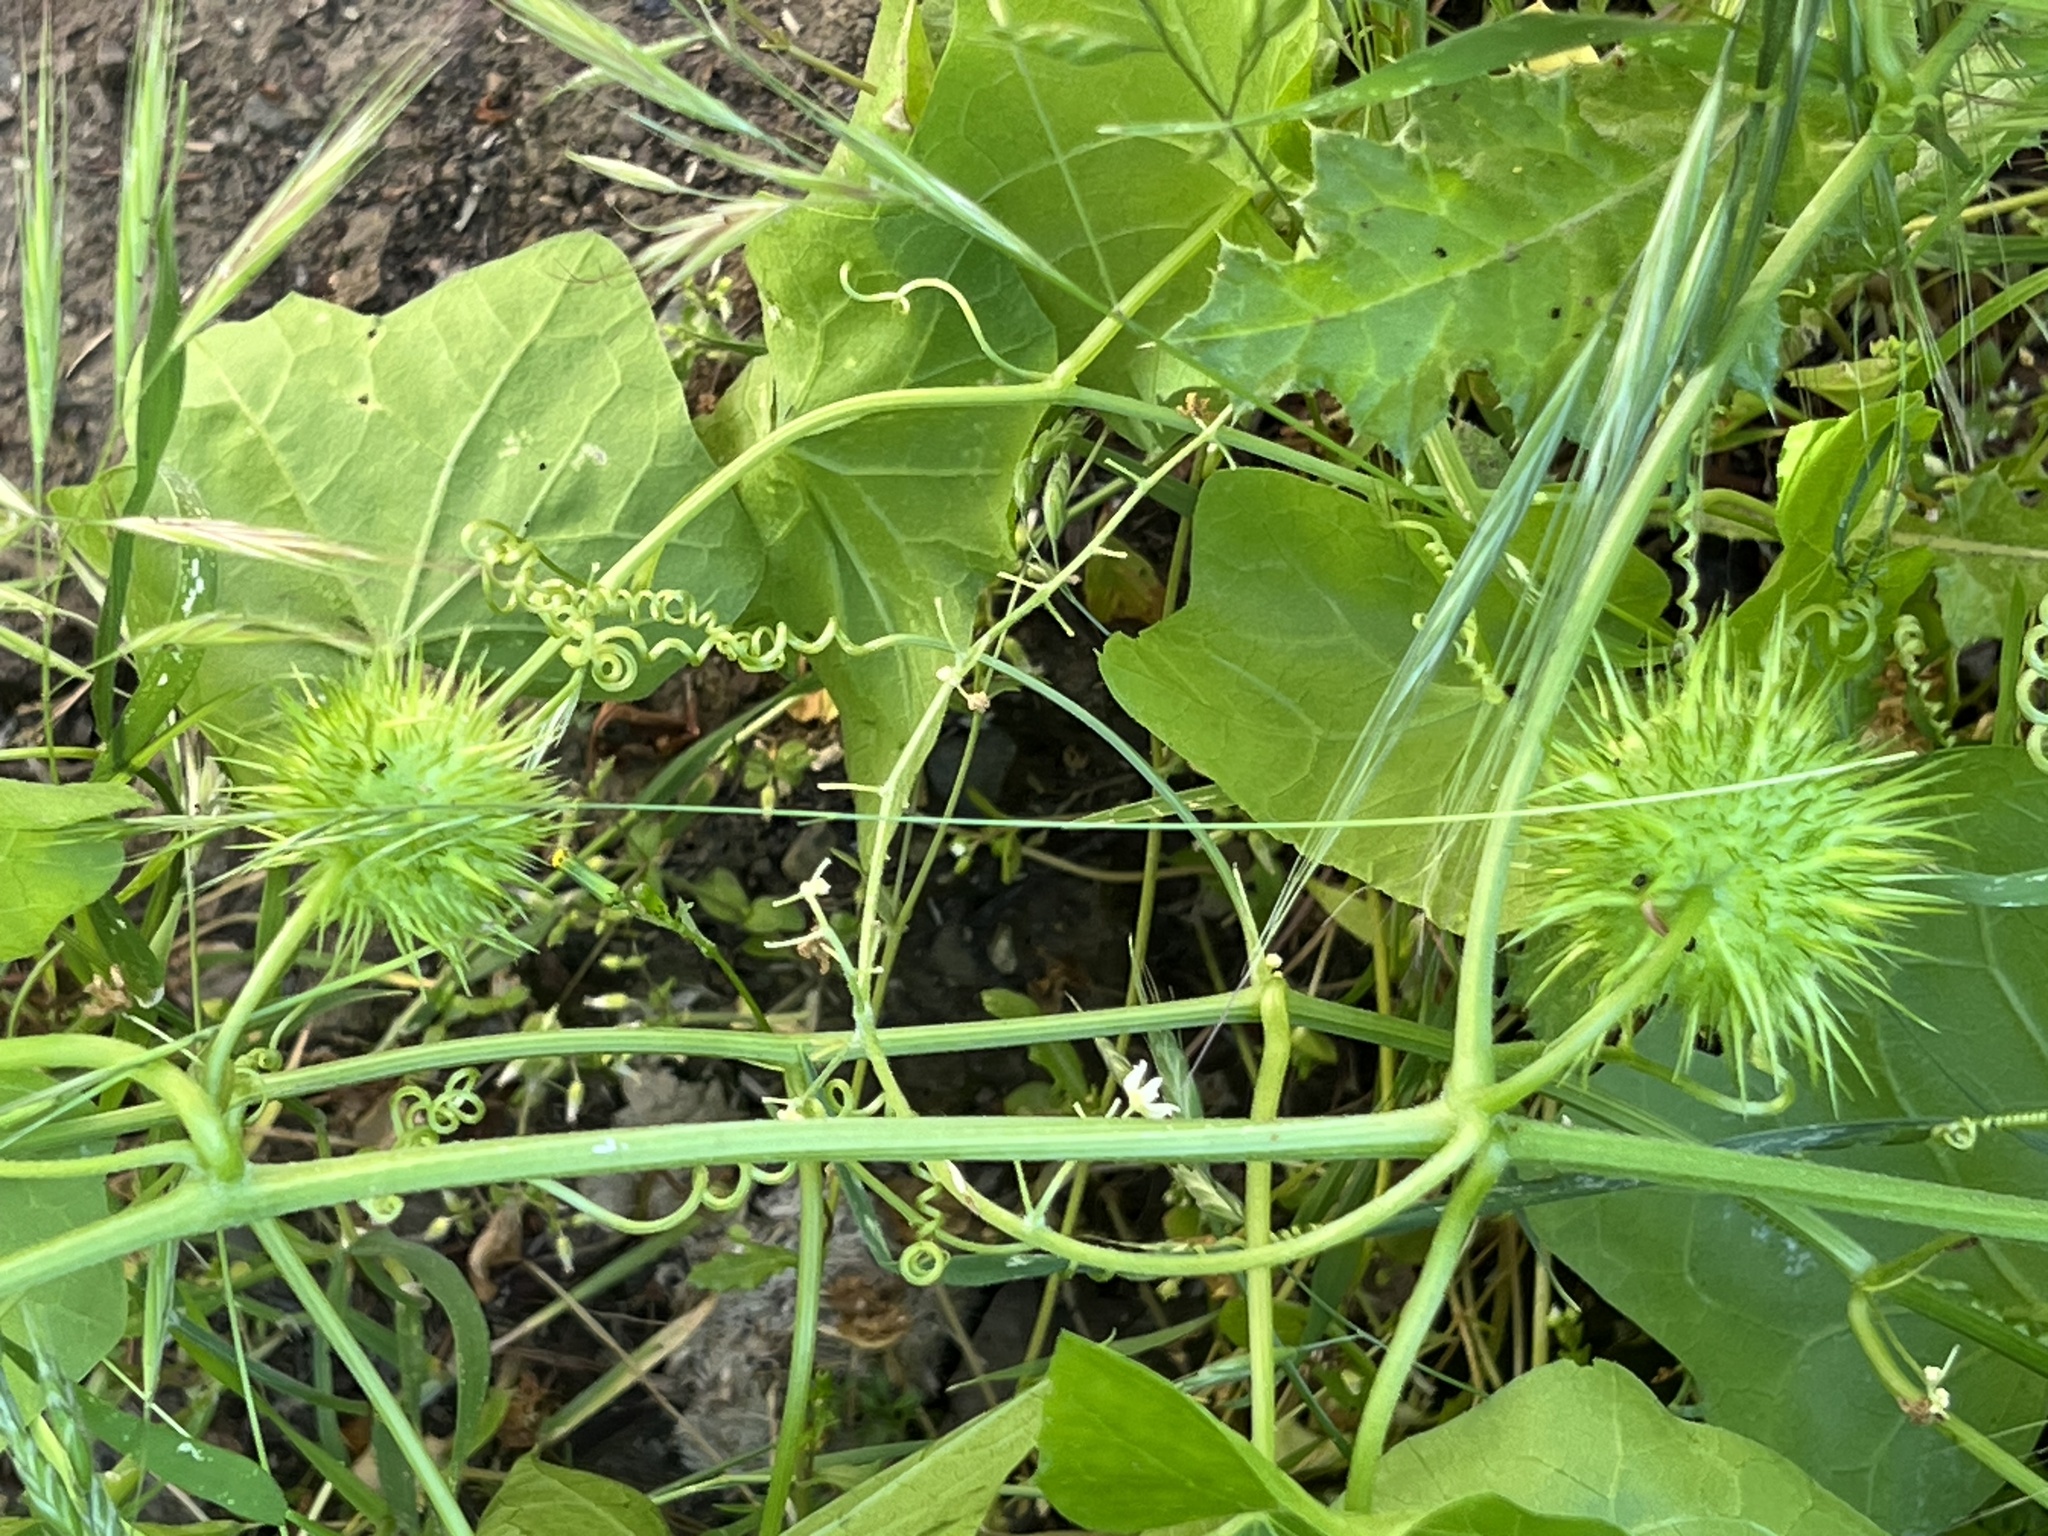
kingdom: Plantae
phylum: Tracheophyta
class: Magnoliopsida
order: Cucurbitales
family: Cucurbitaceae
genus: Marah
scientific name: Marah fabacea
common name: California manroot
